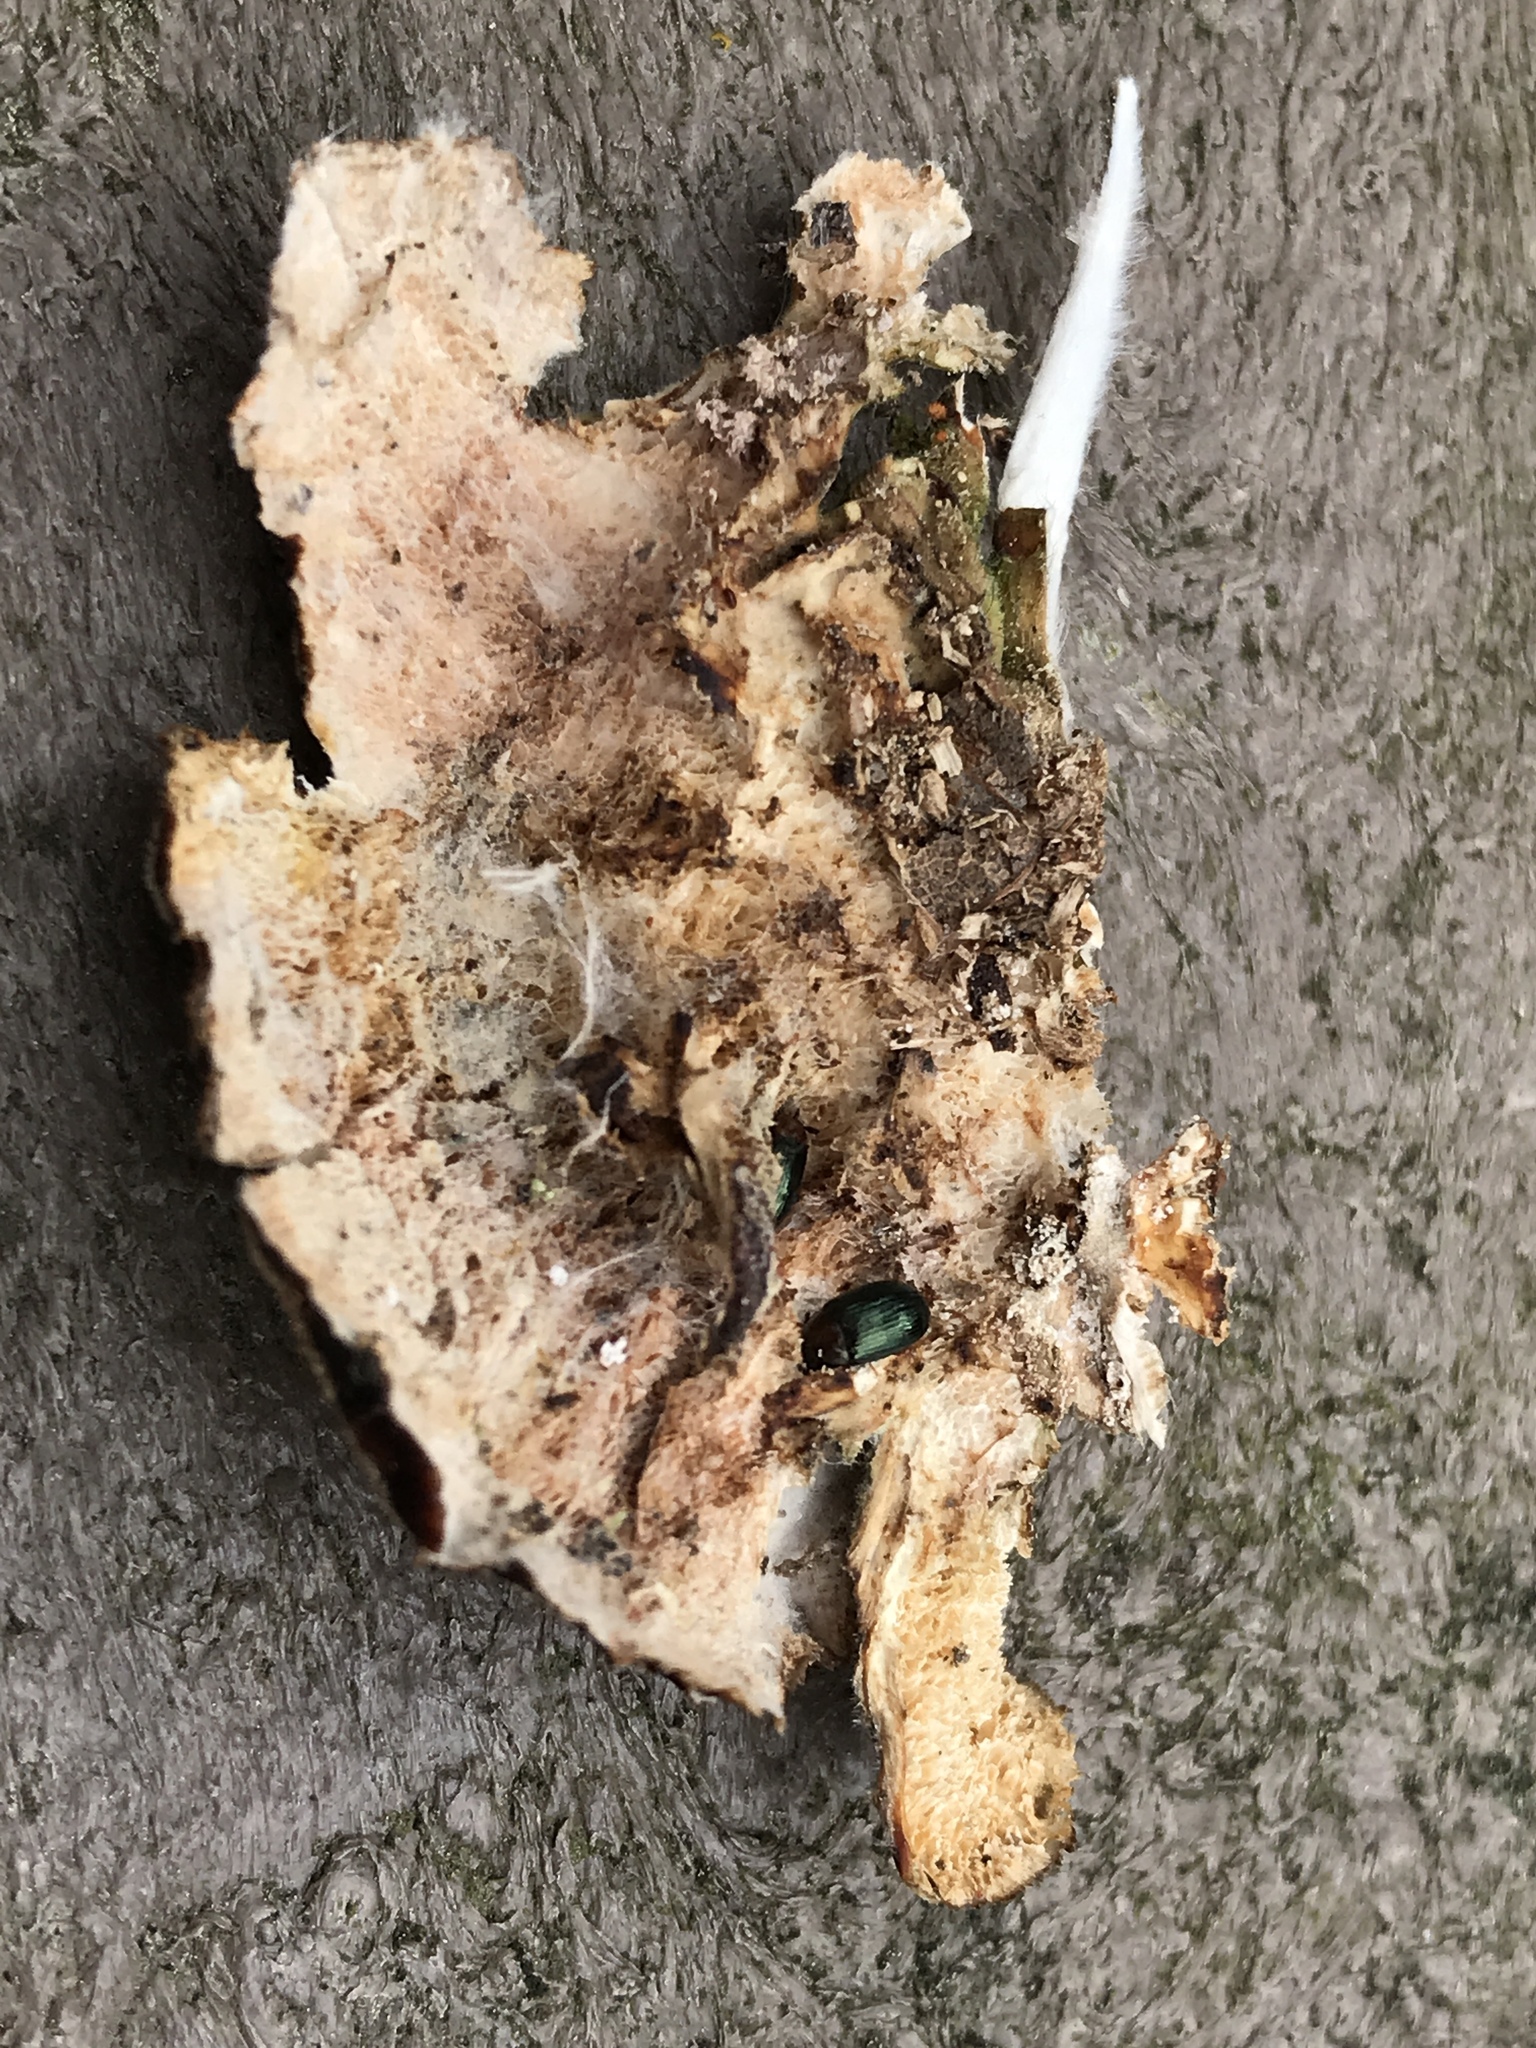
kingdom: Animalia
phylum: Arthropoda
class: Insecta
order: Coleoptera
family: Tenebrionidae
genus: Neomida
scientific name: Neomida bicornis
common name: Two-horned darkling beetle
